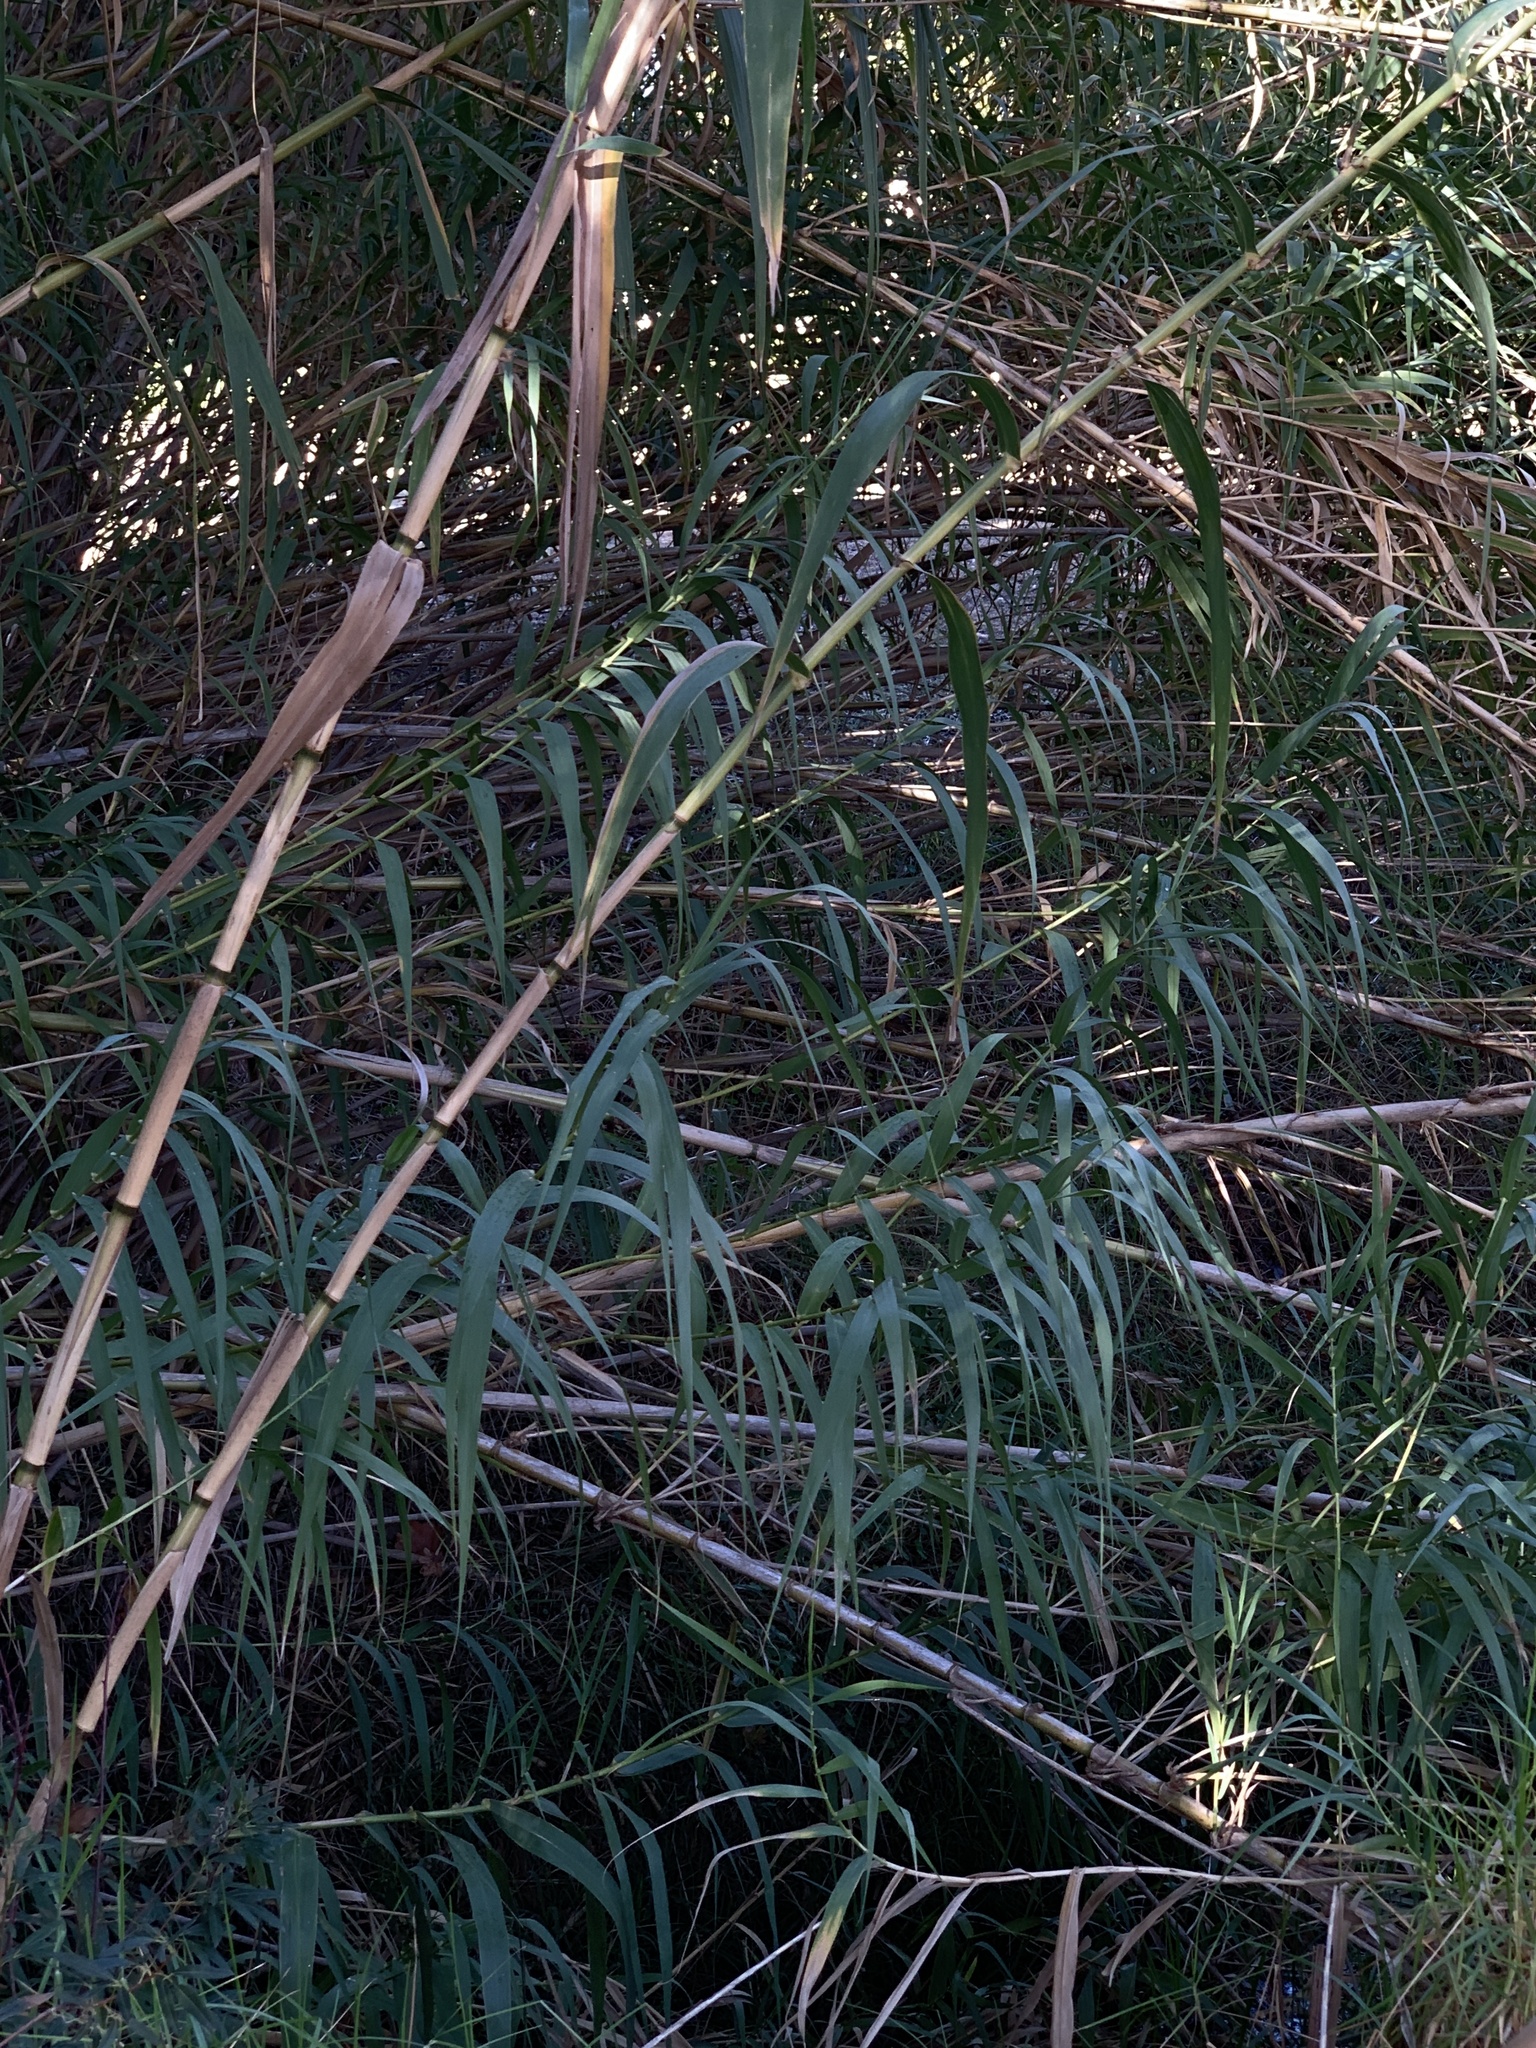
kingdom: Plantae
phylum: Tracheophyta
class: Liliopsida
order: Poales
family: Poaceae
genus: Arundo
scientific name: Arundo donax
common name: Giant reed
